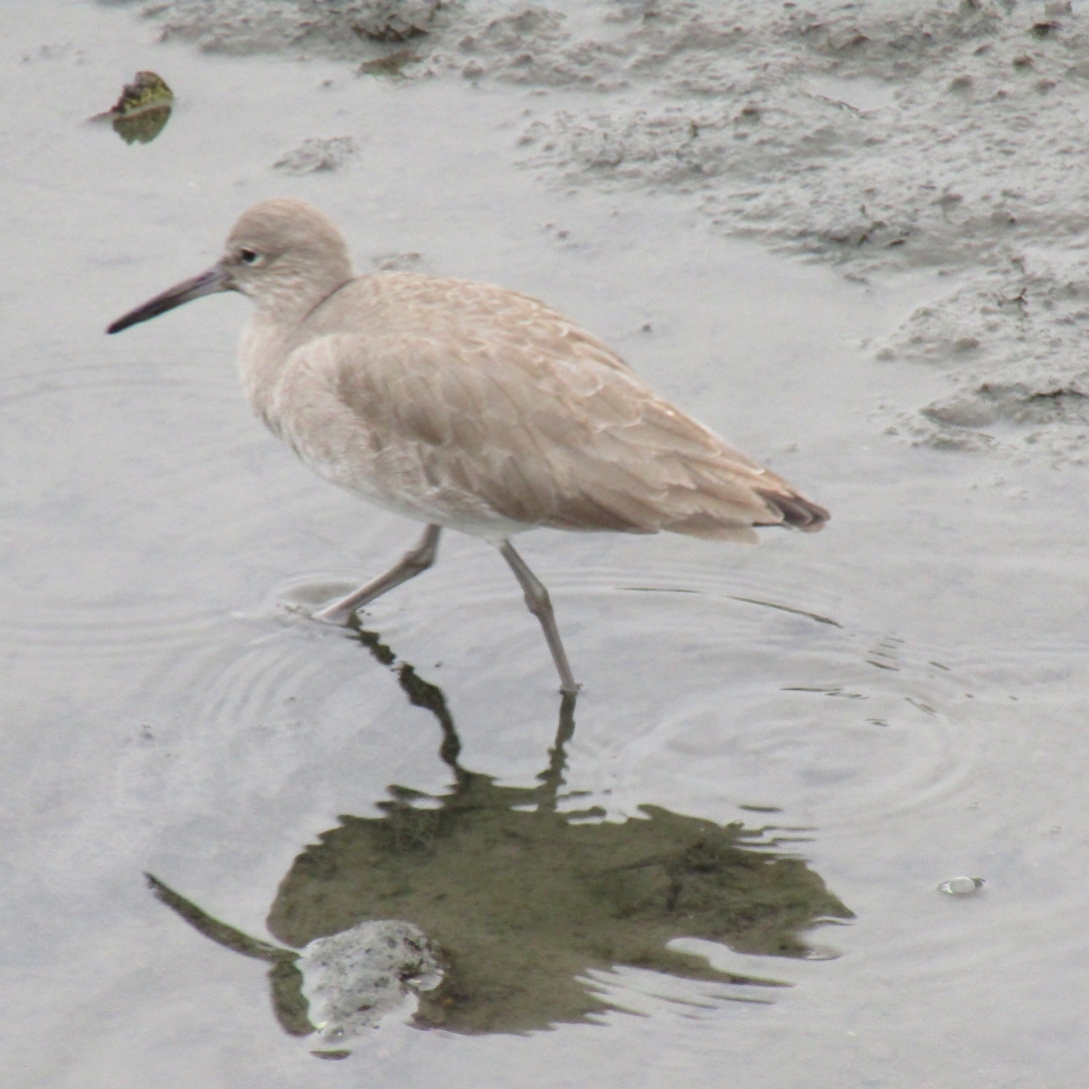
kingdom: Animalia
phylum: Chordata
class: Aves
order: Charadriiformes
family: Scolopacidae
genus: Tringa
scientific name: Tringa semipalmata
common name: Willet
